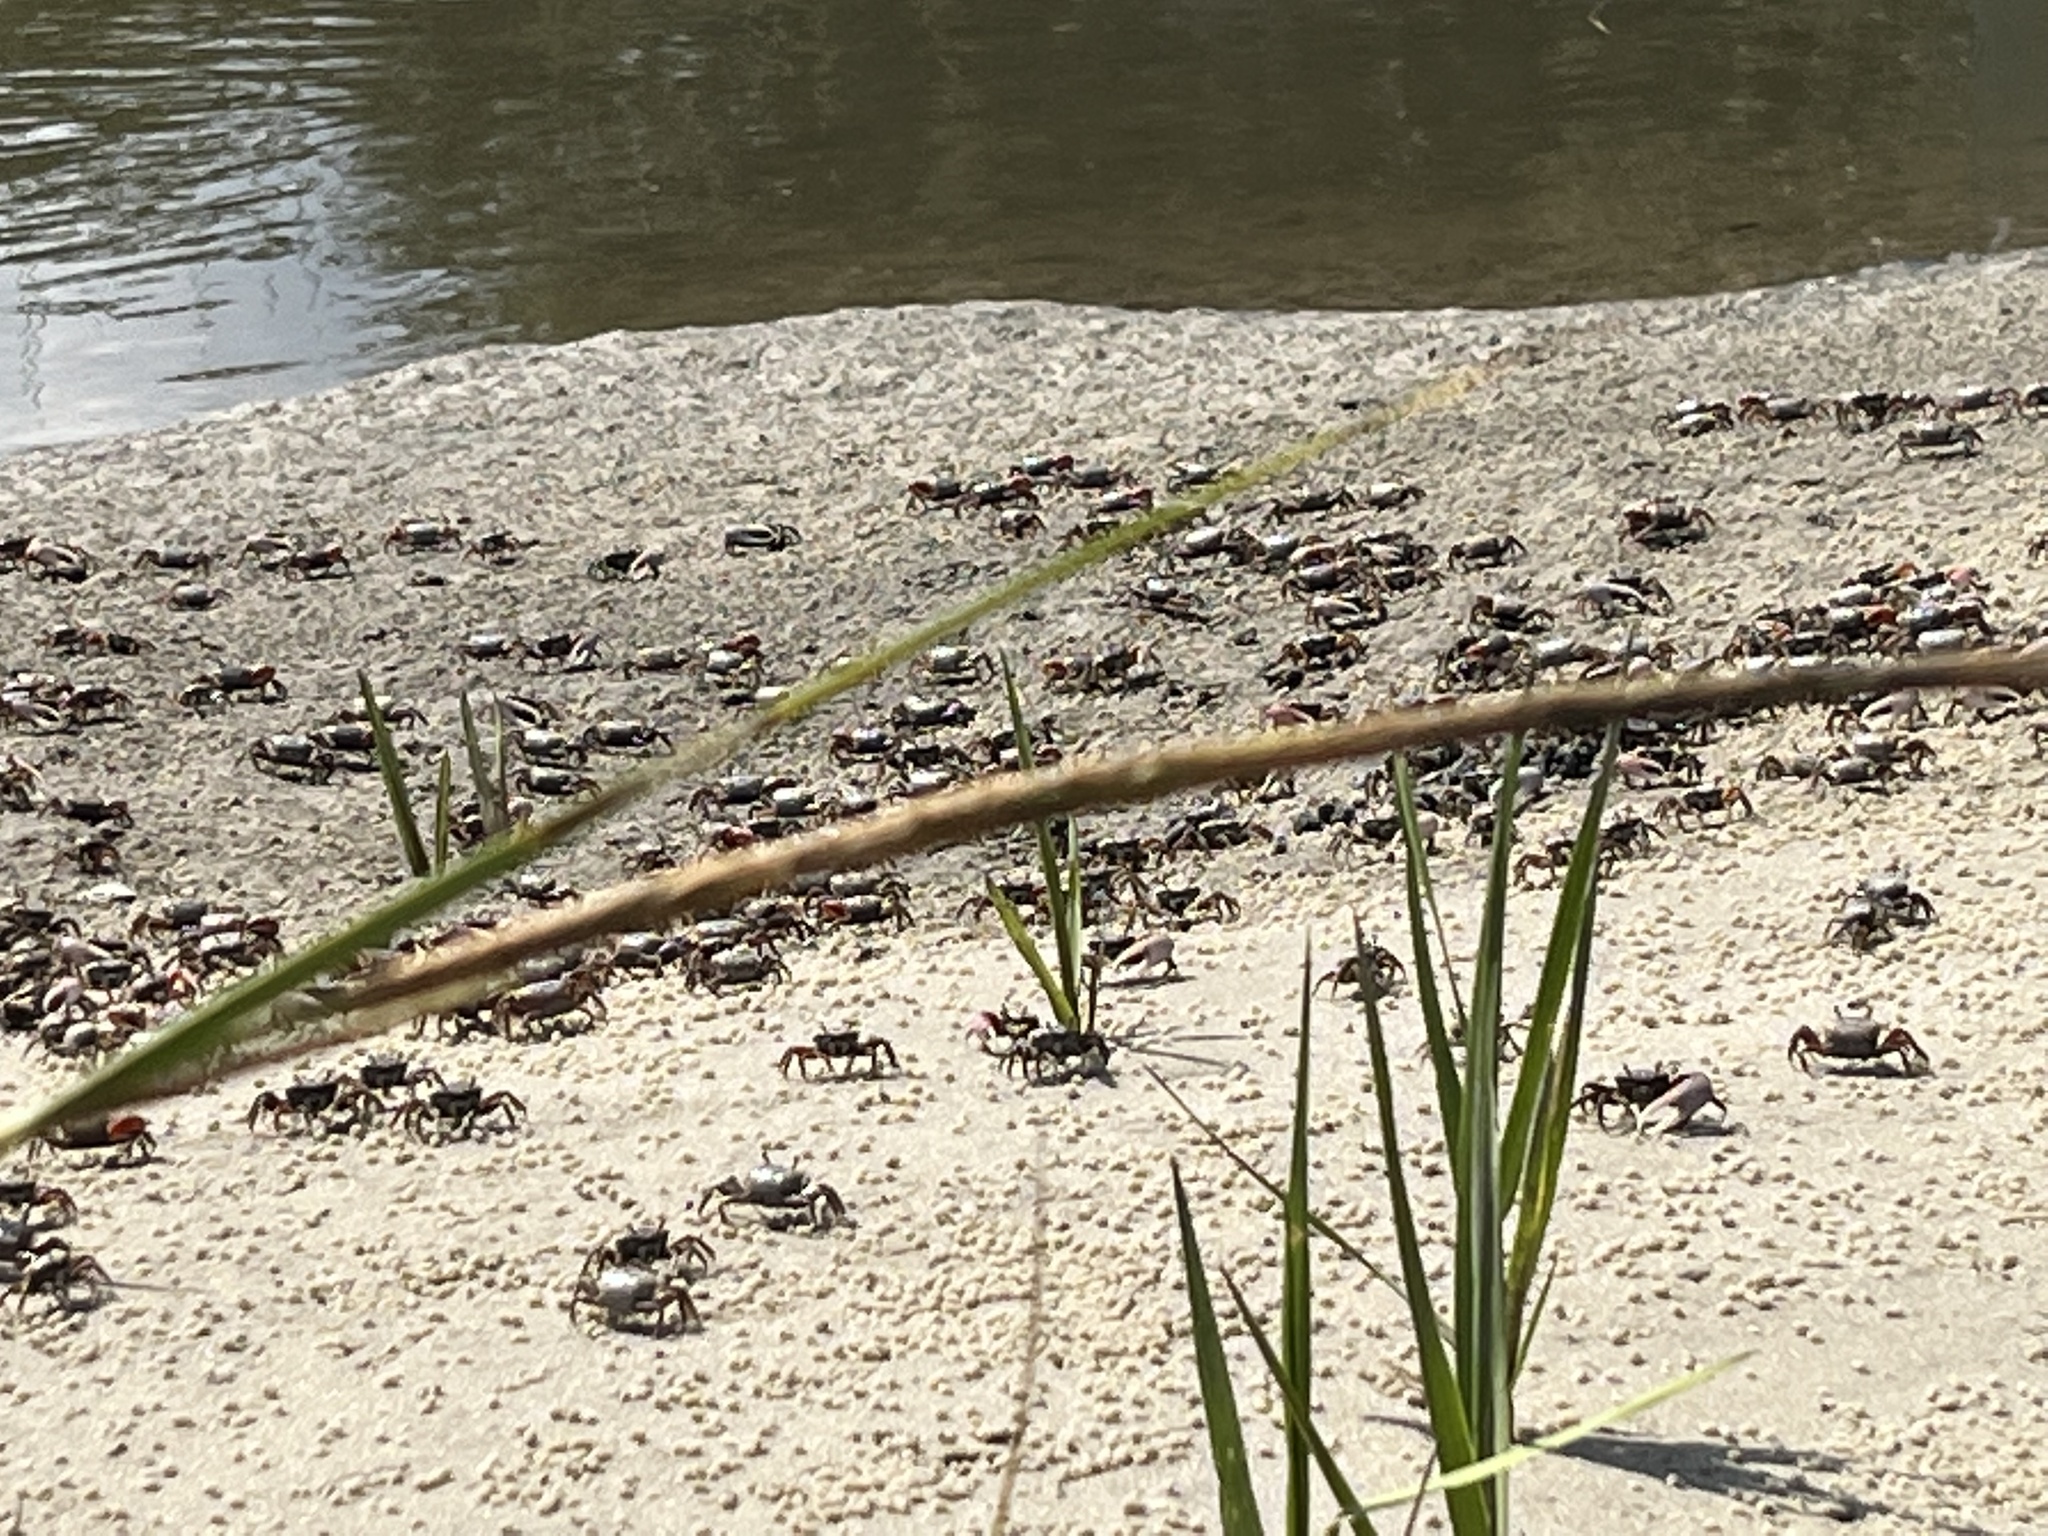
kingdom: Animalia
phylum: Arthropoda
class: Malacostraca
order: Decapoda
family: Ocypodidae
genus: Leptuca
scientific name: Leptuca pugilator
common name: Atlantic sand fiddler crab
